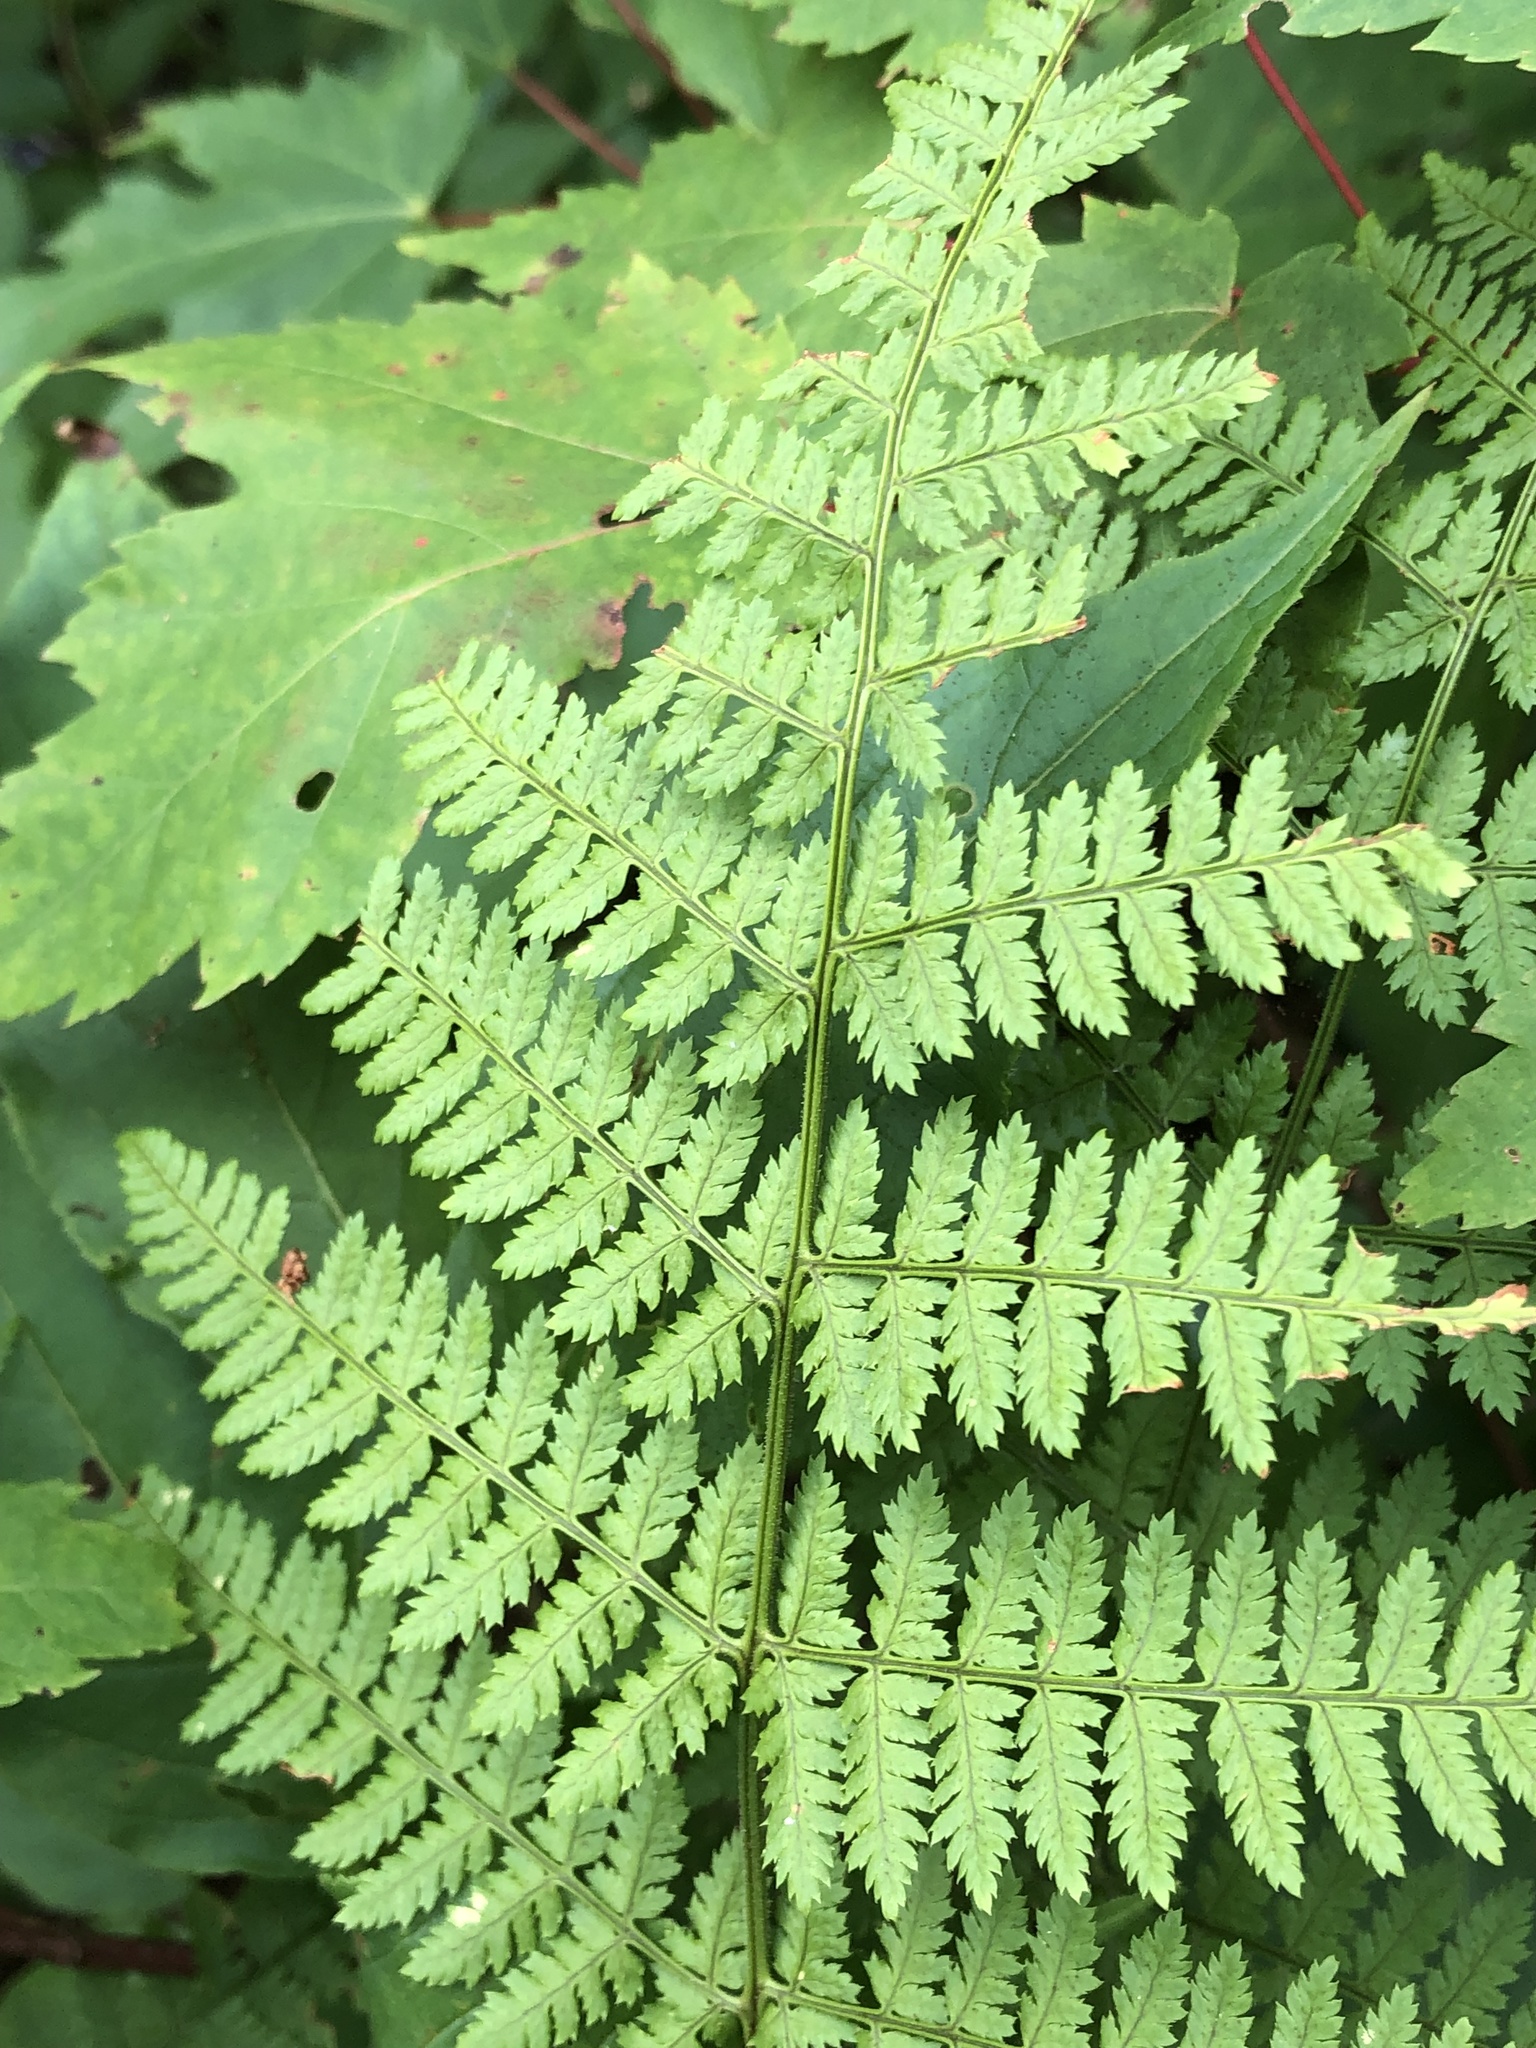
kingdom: Plantae
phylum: Tracheophyta
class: Polypodiopsida
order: Polypodiales
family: Dryopteridaceae
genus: Dryopteris
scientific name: Dryopteris intermedia
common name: Evergreen wood fern
